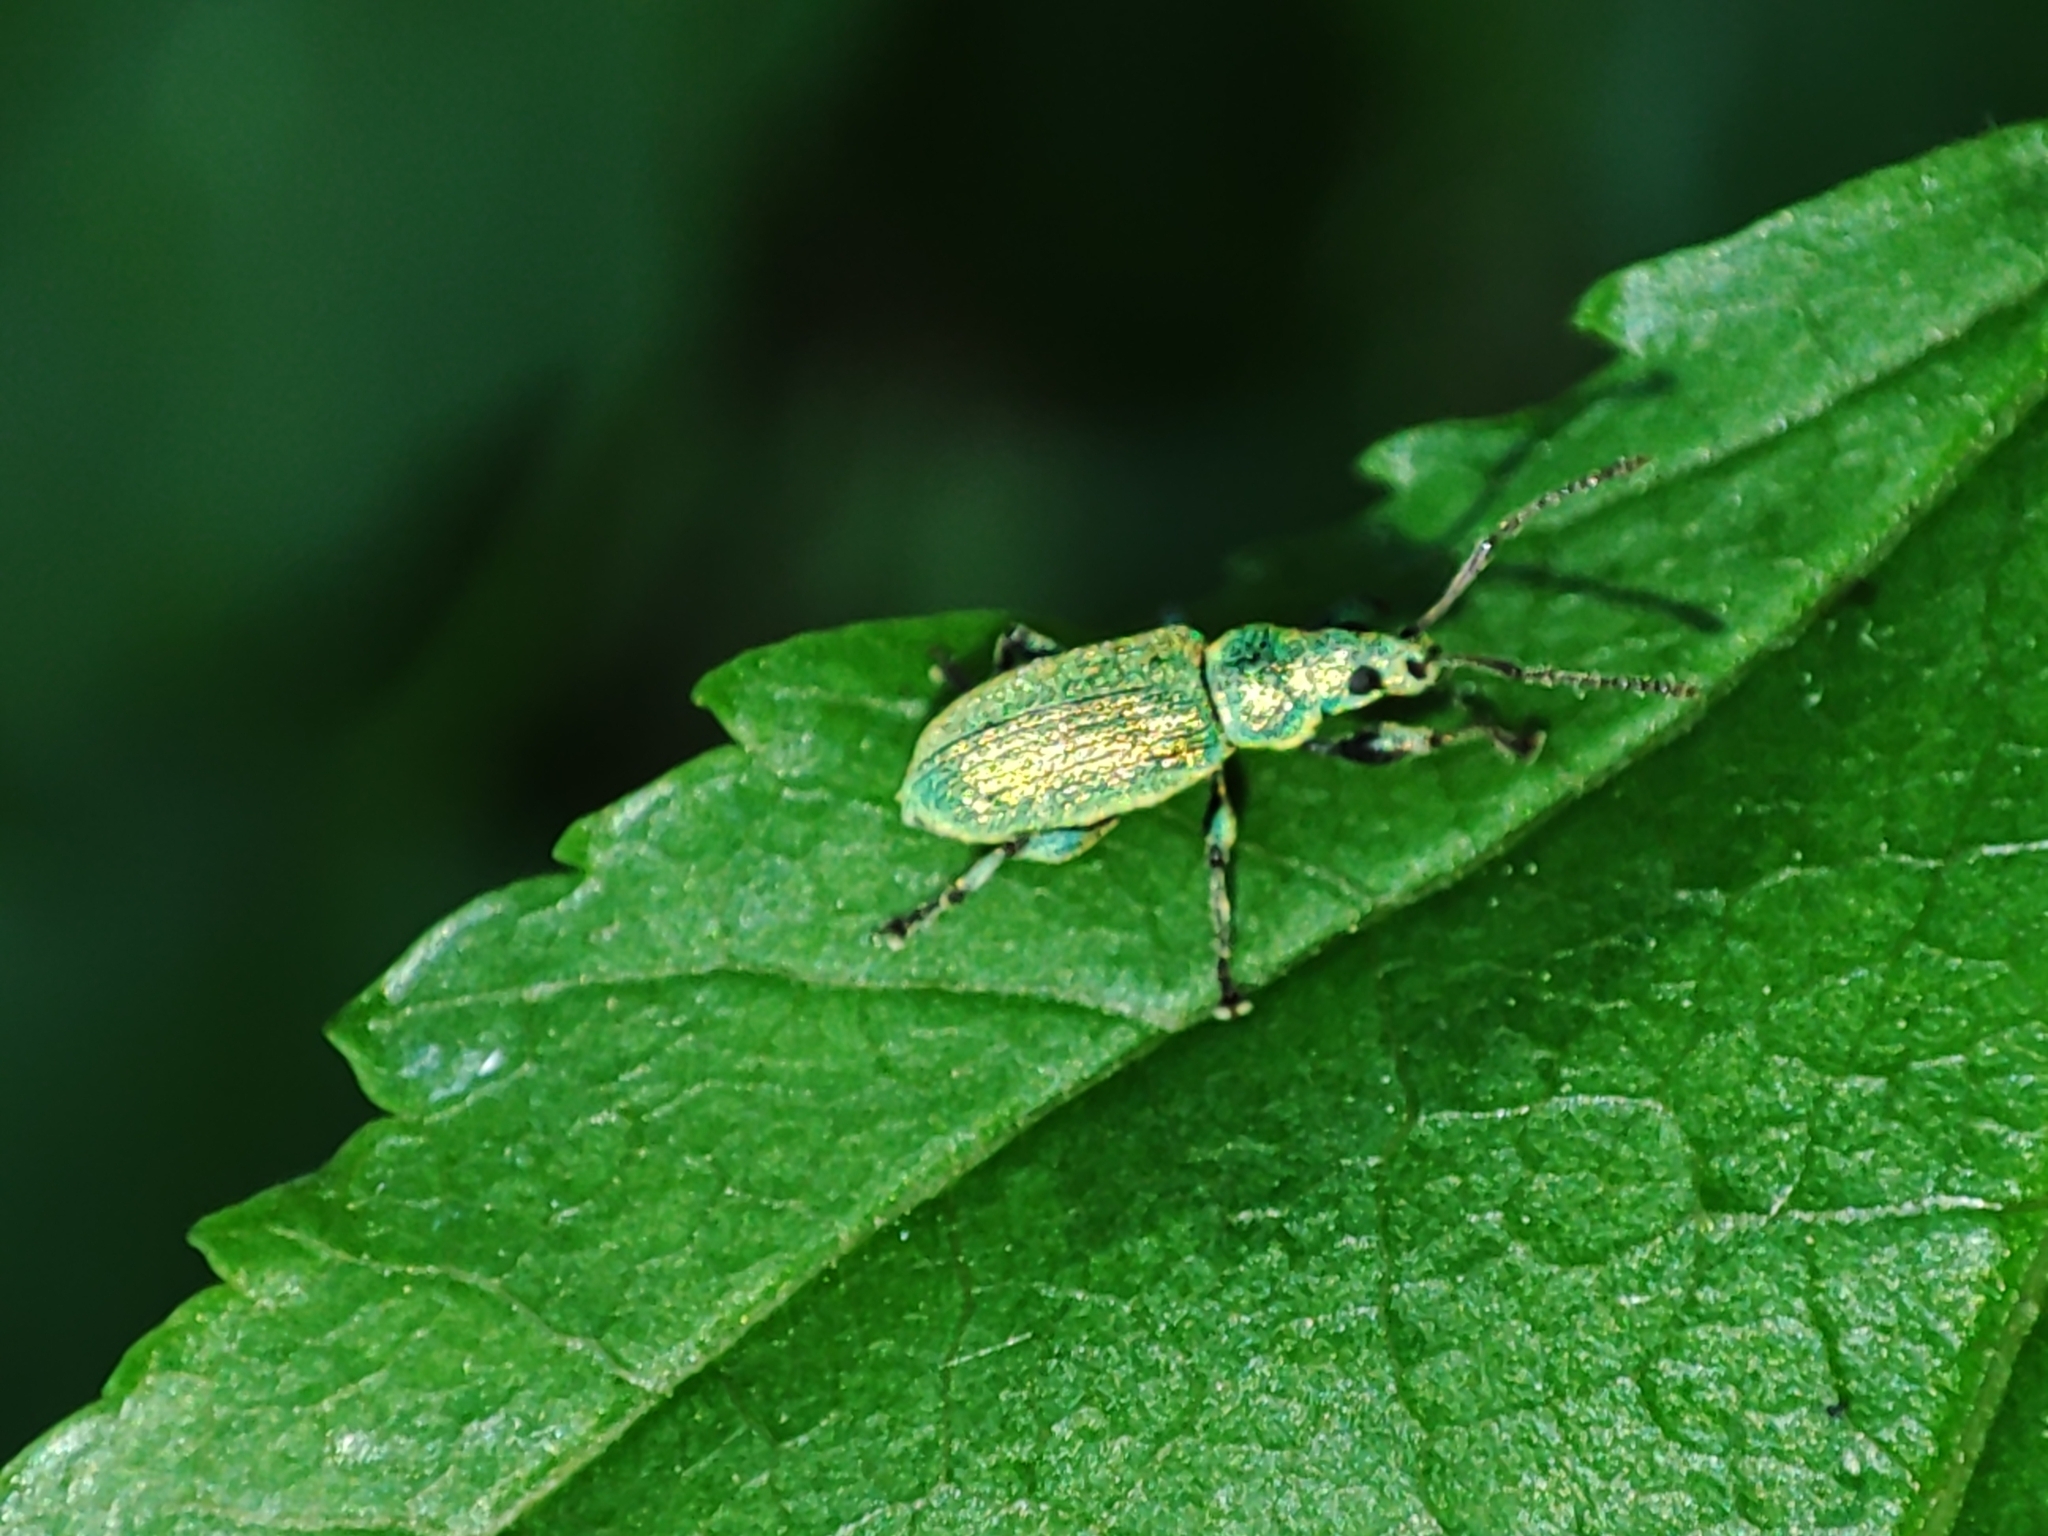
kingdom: Animalia
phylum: Arthropoda
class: Insecta
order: Coleoptera
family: Curculionidae
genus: Phyllobius
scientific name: Phyllobius argentatus
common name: Silver-green leaf weevil
